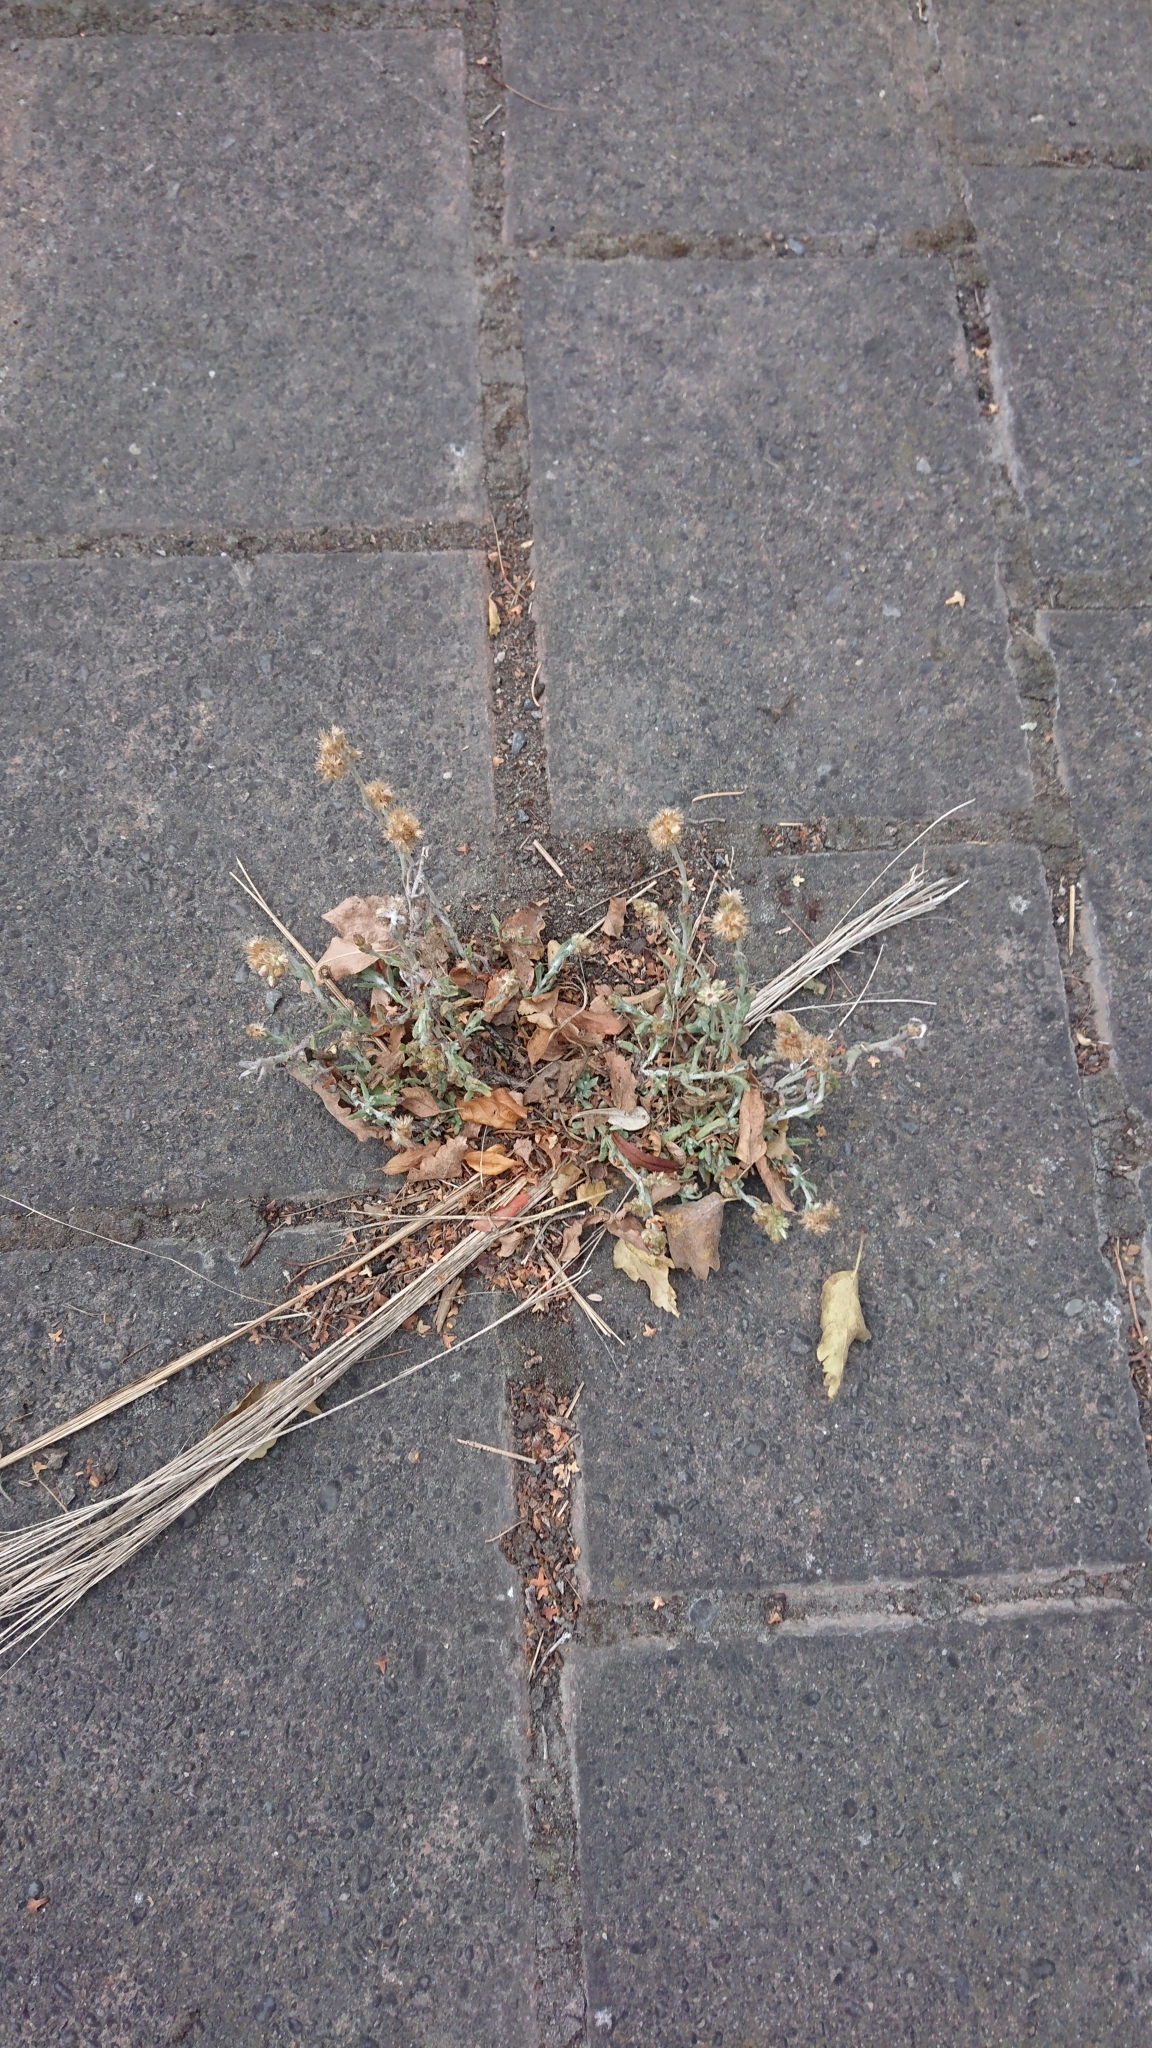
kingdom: Plantae
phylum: Tracheophyta
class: Magnoliopsida
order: Asterales
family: Asteraceae
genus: Helichrysum
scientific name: Helichrysum luteoalbum
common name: Daisy
